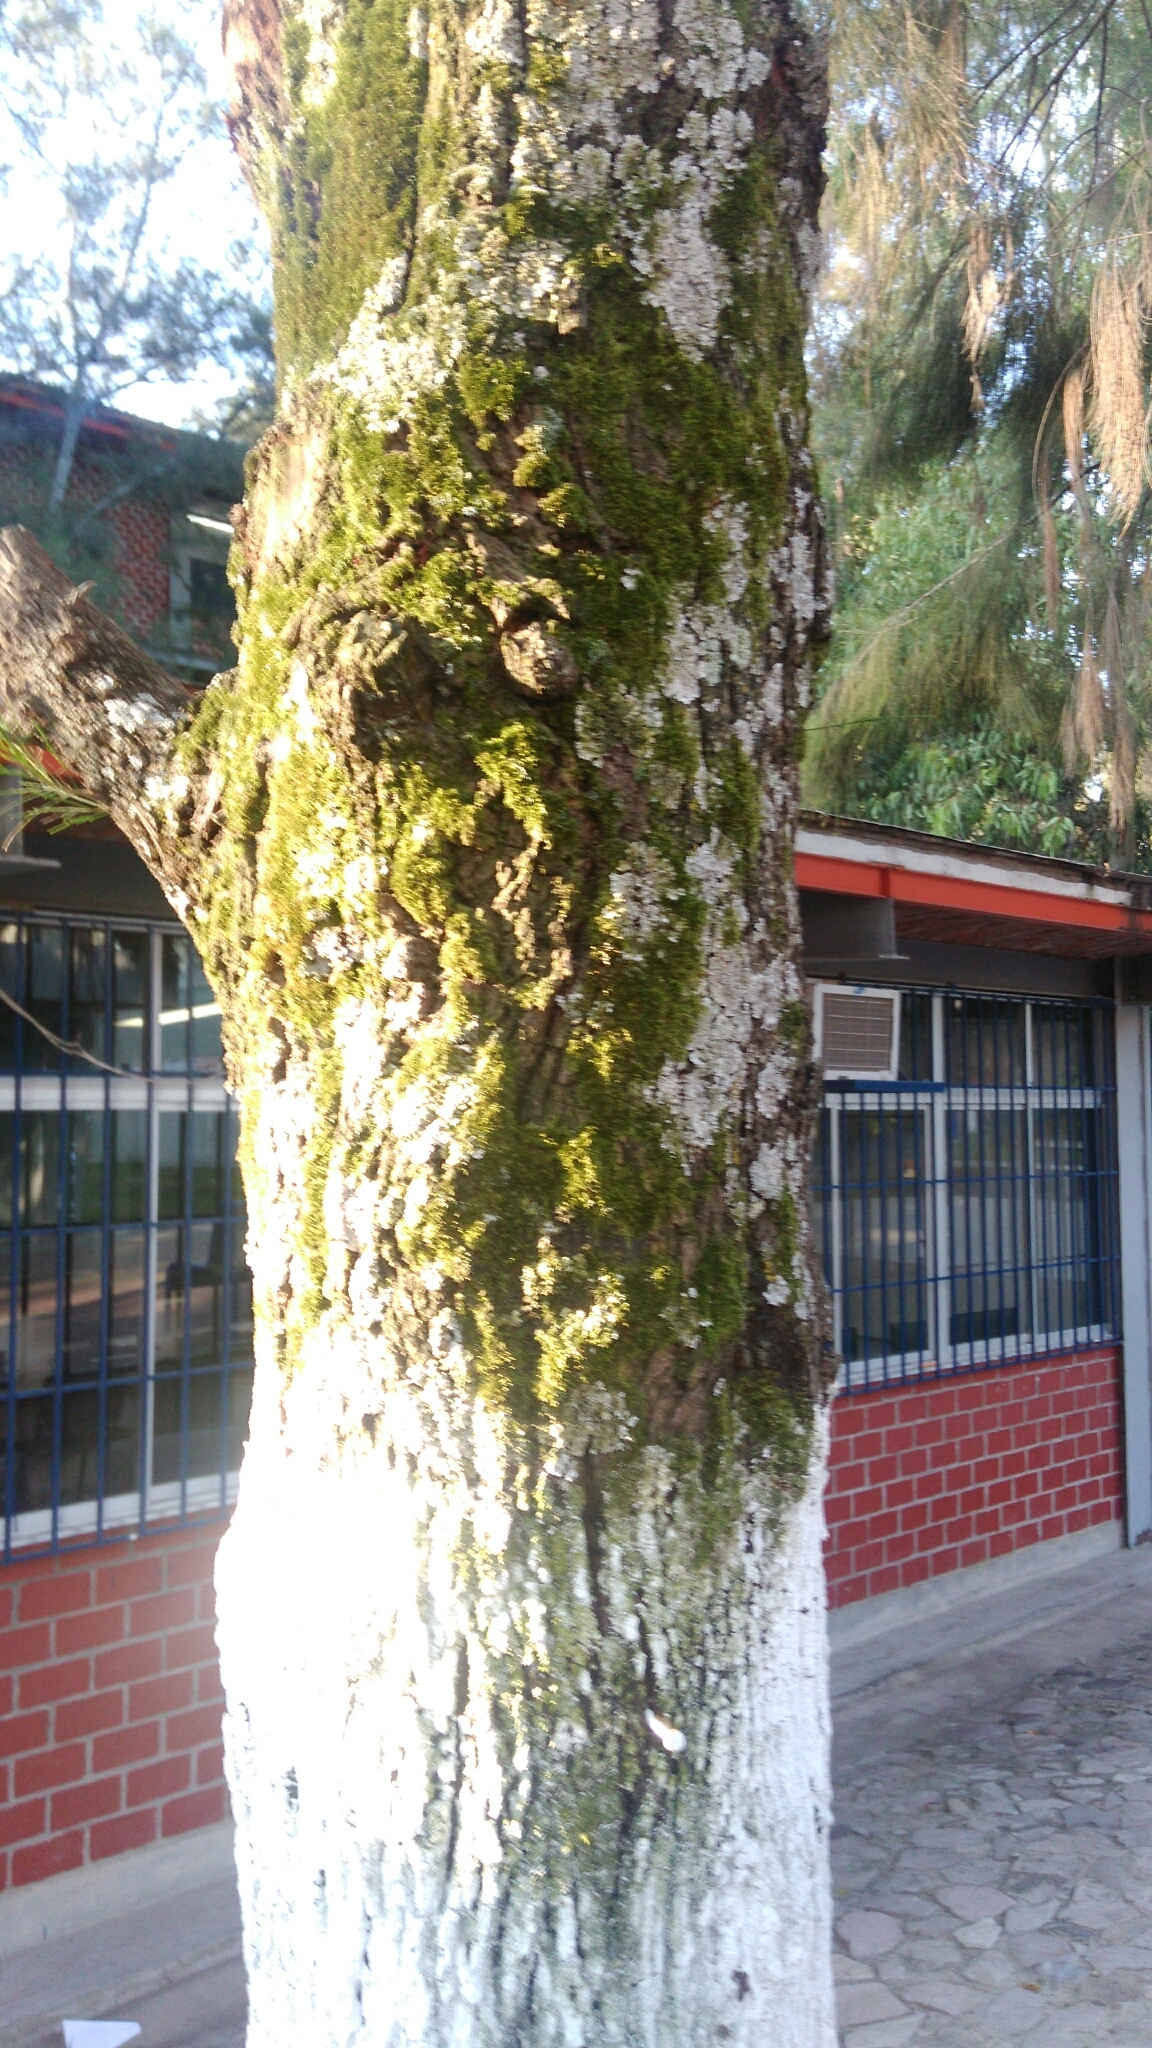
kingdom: Plantae
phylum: Bryophyta
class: Bryopsida
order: Hypnales
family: Thuidiaceae
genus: Thuidium
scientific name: Thuidium peruvianum
